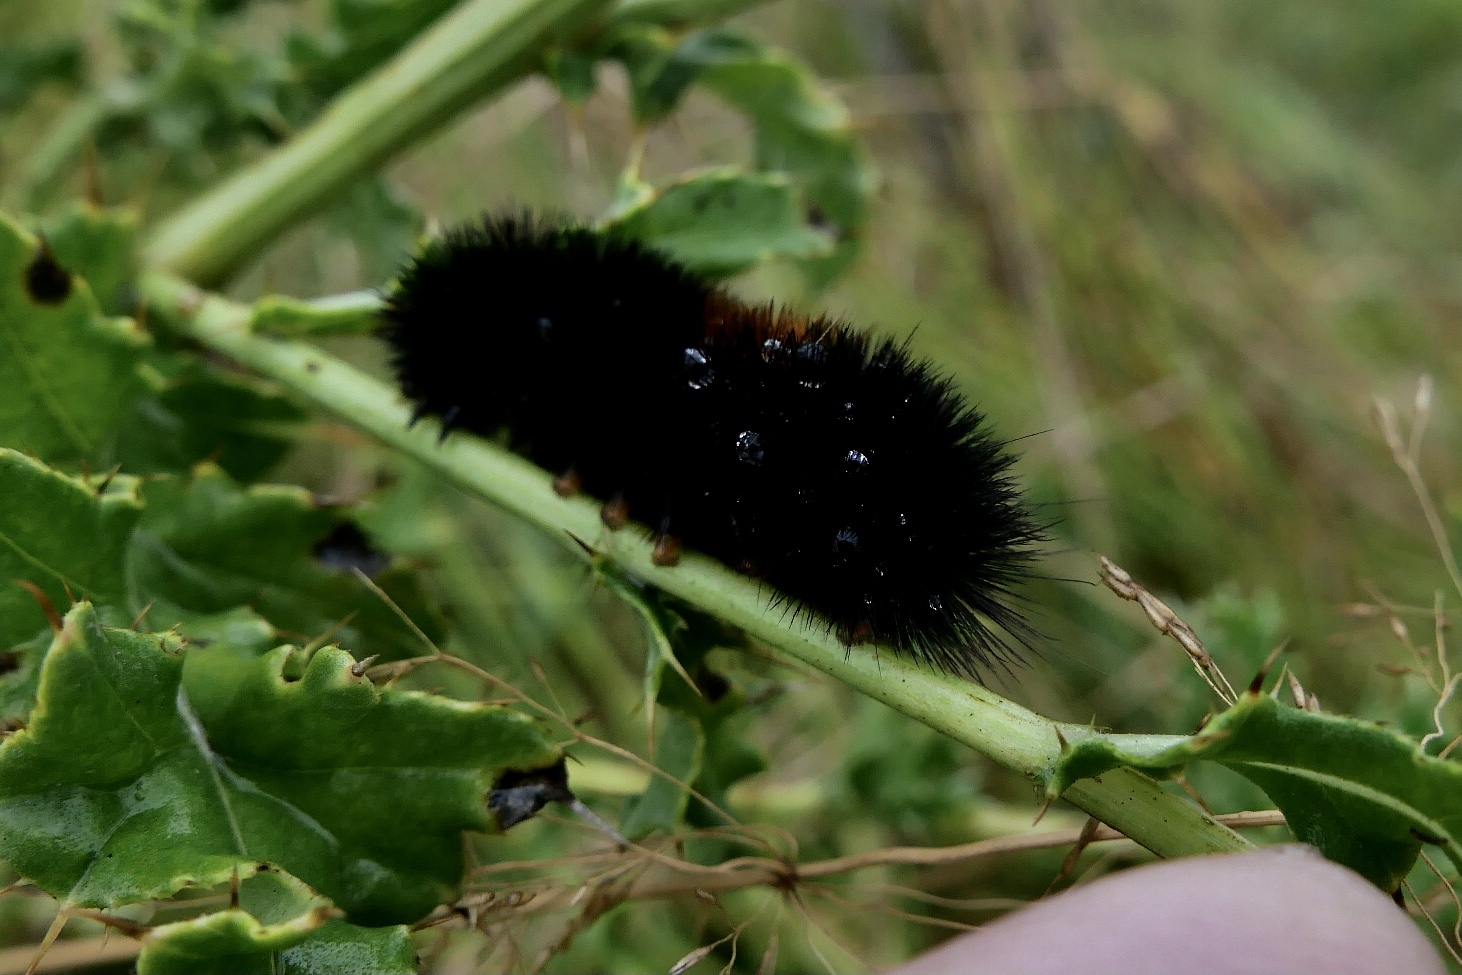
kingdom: Animalia
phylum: Arthropoda
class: Insecta
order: Lepidoptera
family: Erebidae
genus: Pyrrharctia
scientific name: Pyrrharctia isabella
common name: Isabella tiger moth
